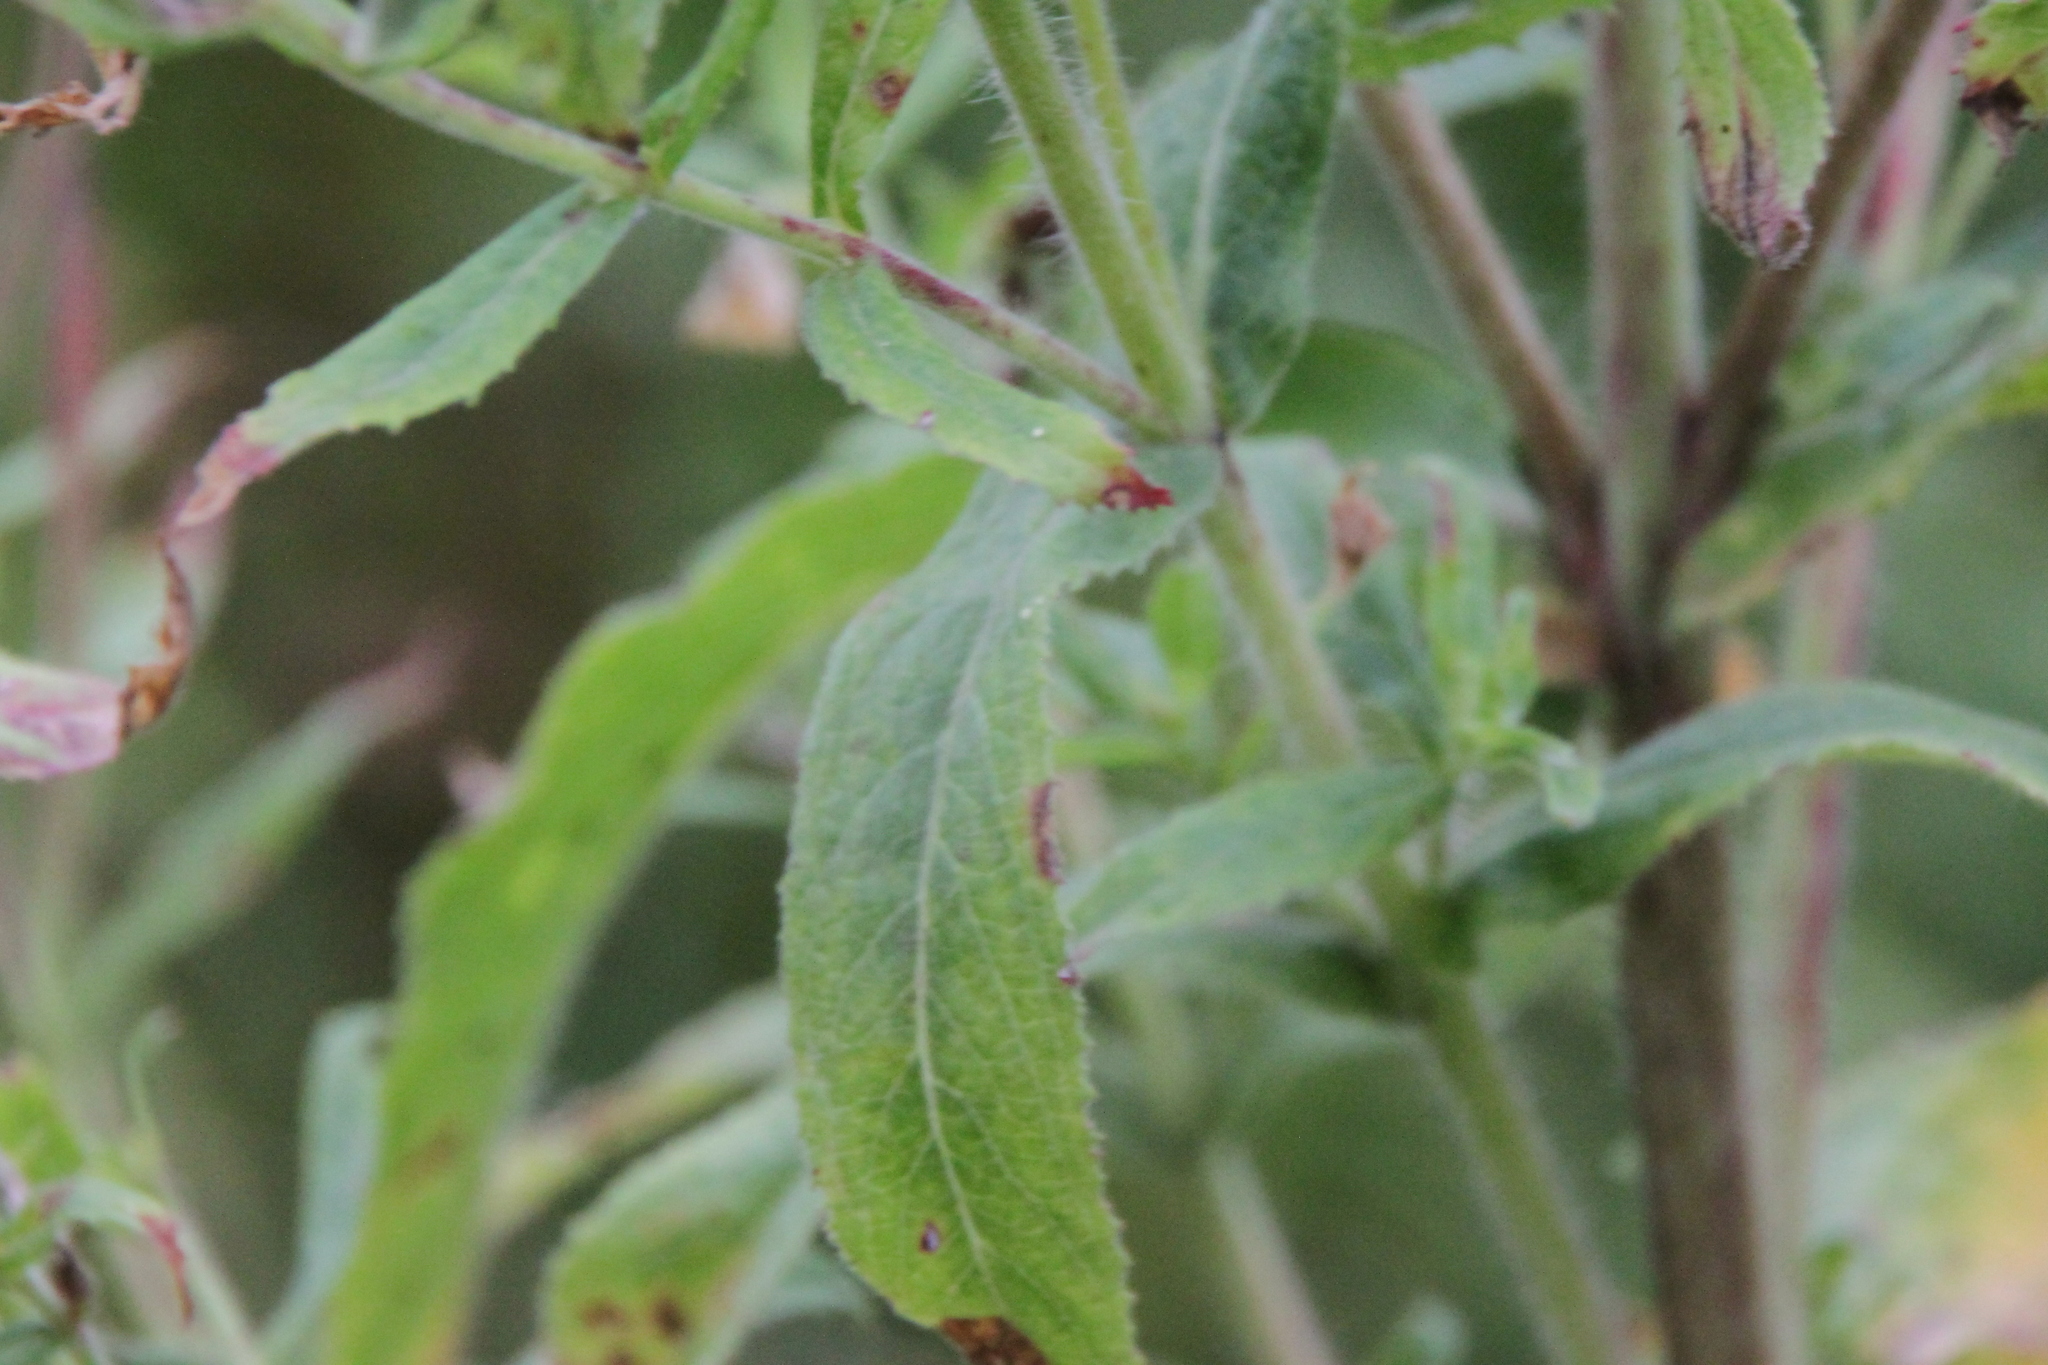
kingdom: Plantae
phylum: Tracheophyta
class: Magnoliopsida
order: Myrtales
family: Onagraceae
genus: Epilobium
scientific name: Epilobium hirsutum
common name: Great willowherb
